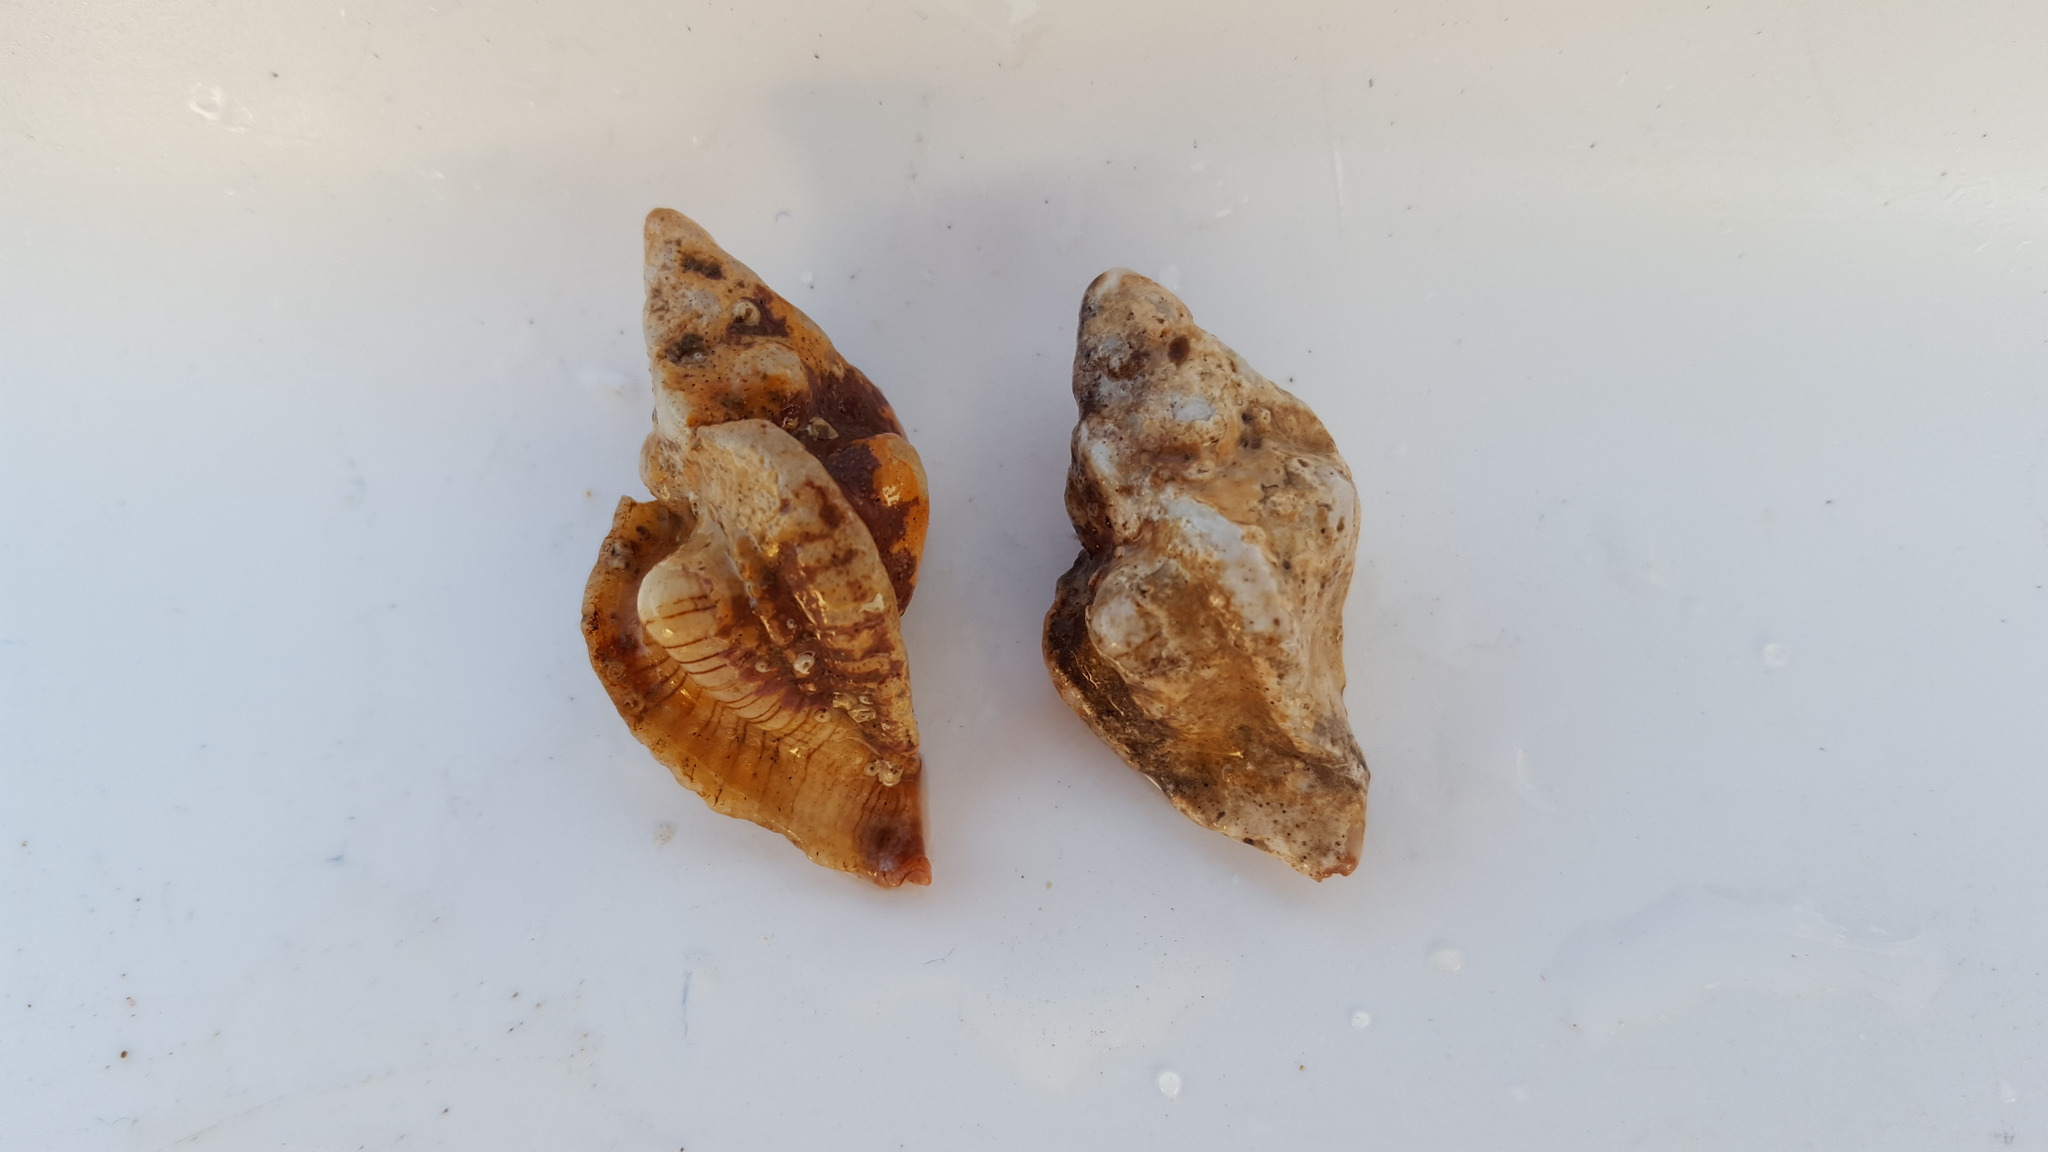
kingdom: Animalia
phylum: Mollusca
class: Gastropoda
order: Neogastropoda
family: Muricidae
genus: Pteropurpura
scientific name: Pteropurpura festiva
